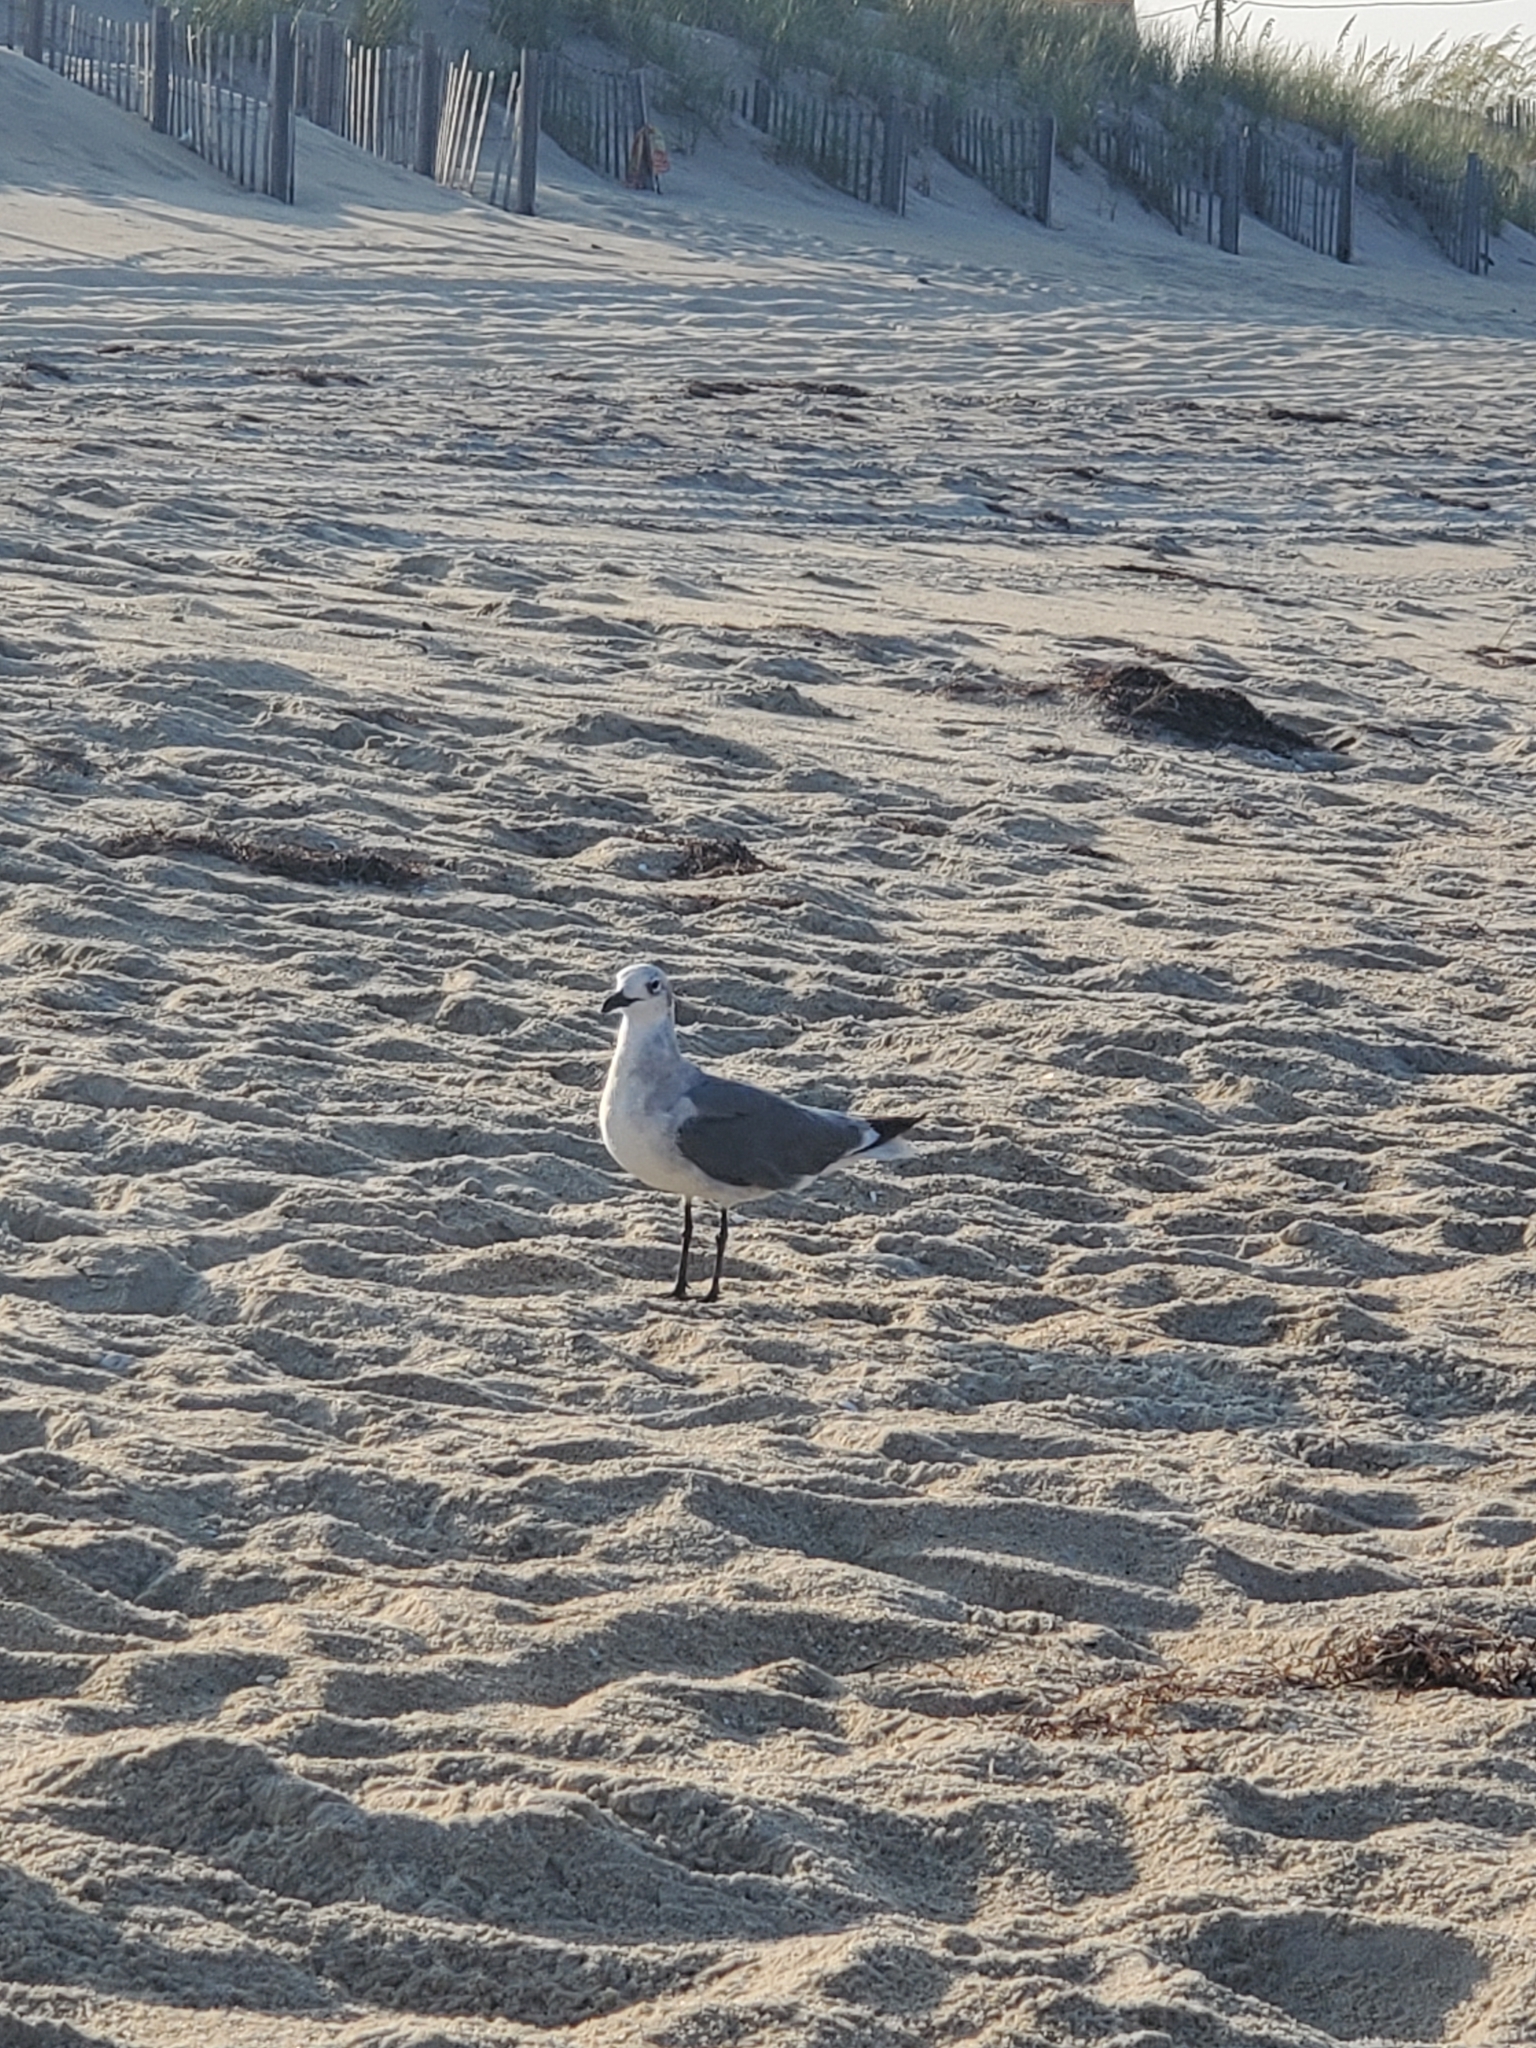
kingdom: Animalia
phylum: Chordata
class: Aves
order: Charadriiformes
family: Laridae
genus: Leucophaeus
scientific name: Leucophaeus atricilla
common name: Laughing gull
